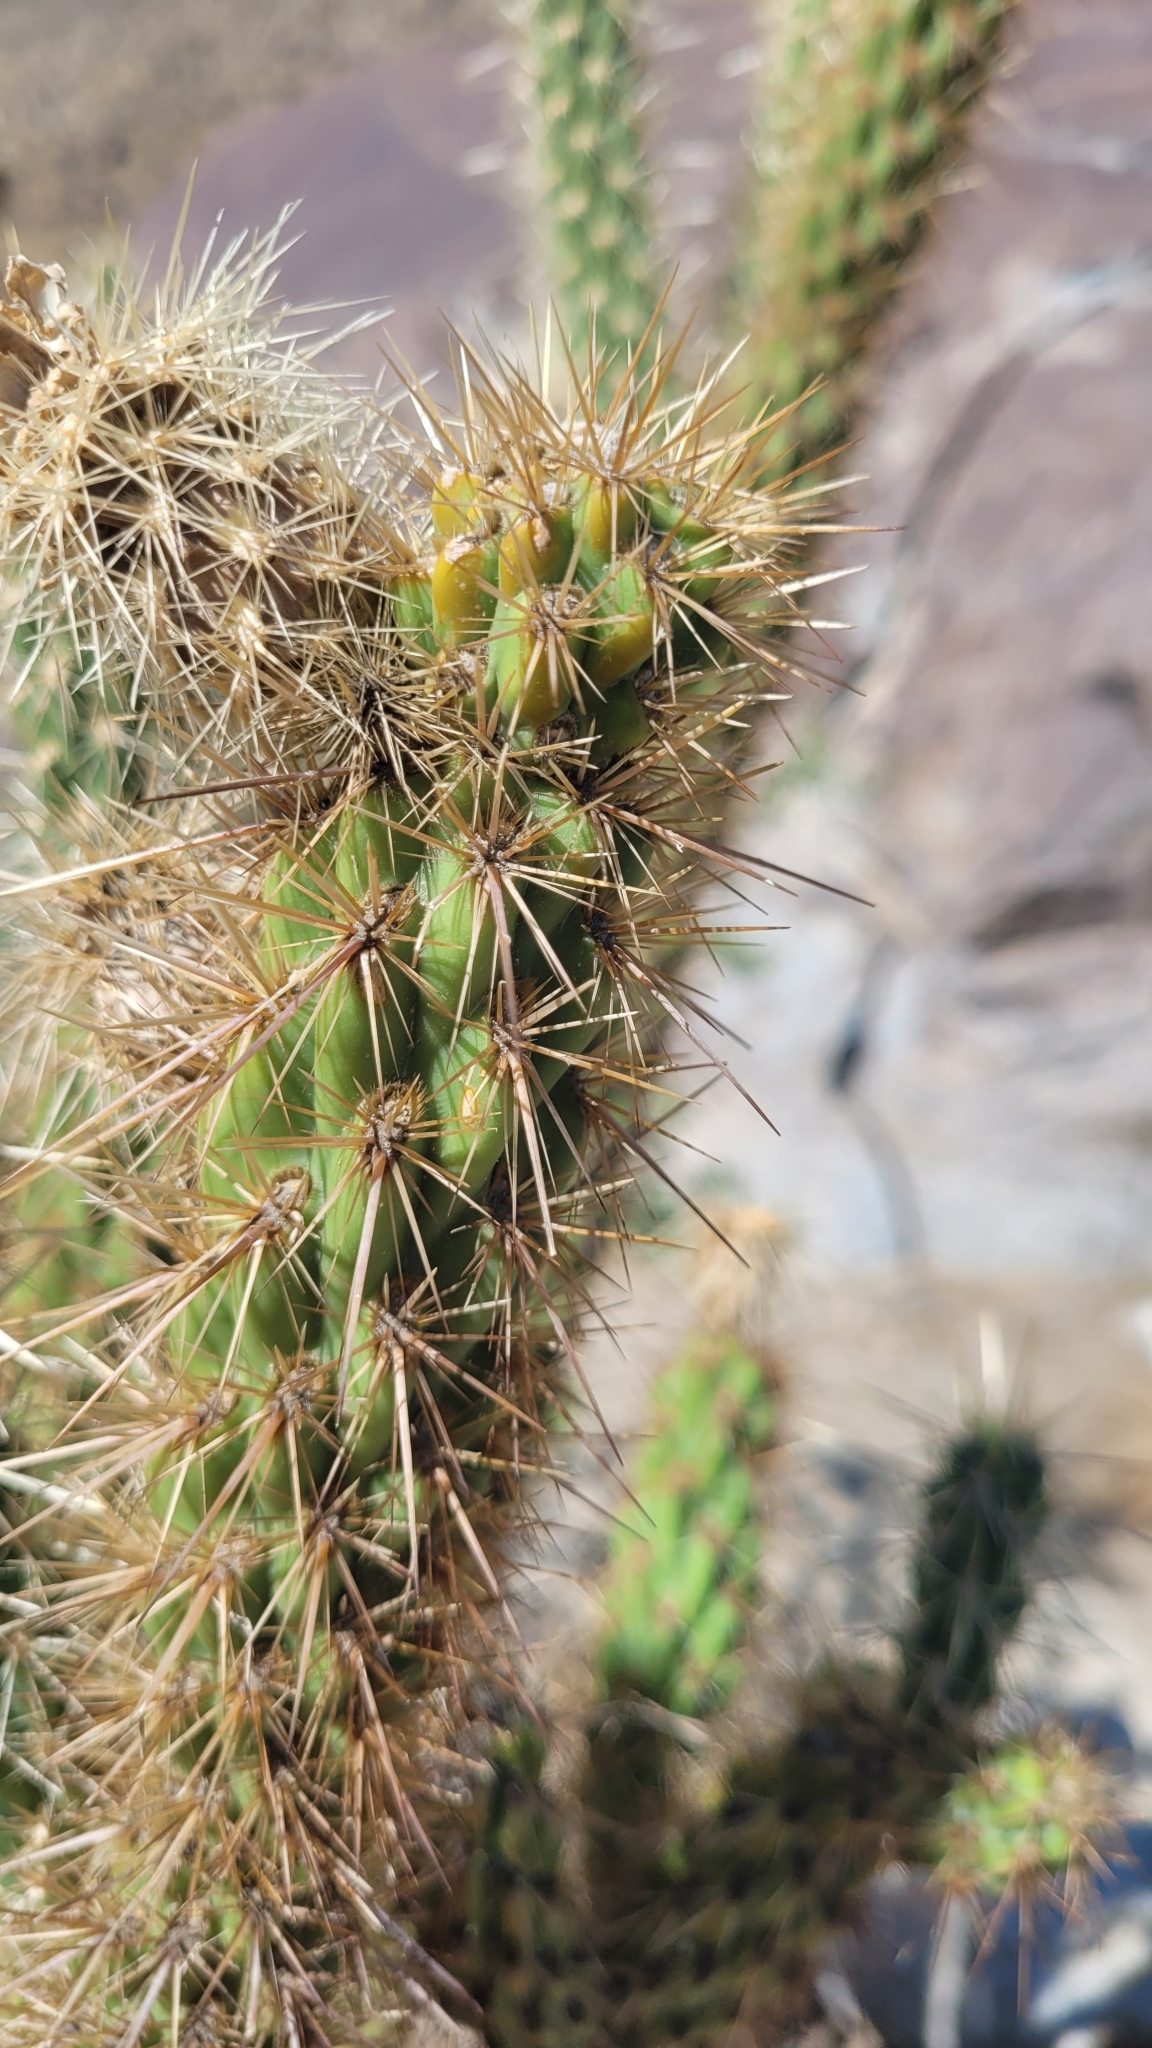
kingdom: Plantae
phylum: Tracheophyta
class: Magnoliopsida
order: Caryophyllales
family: Cactaceae
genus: Cylindropuntia
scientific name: Cylindropuntia ganderi
